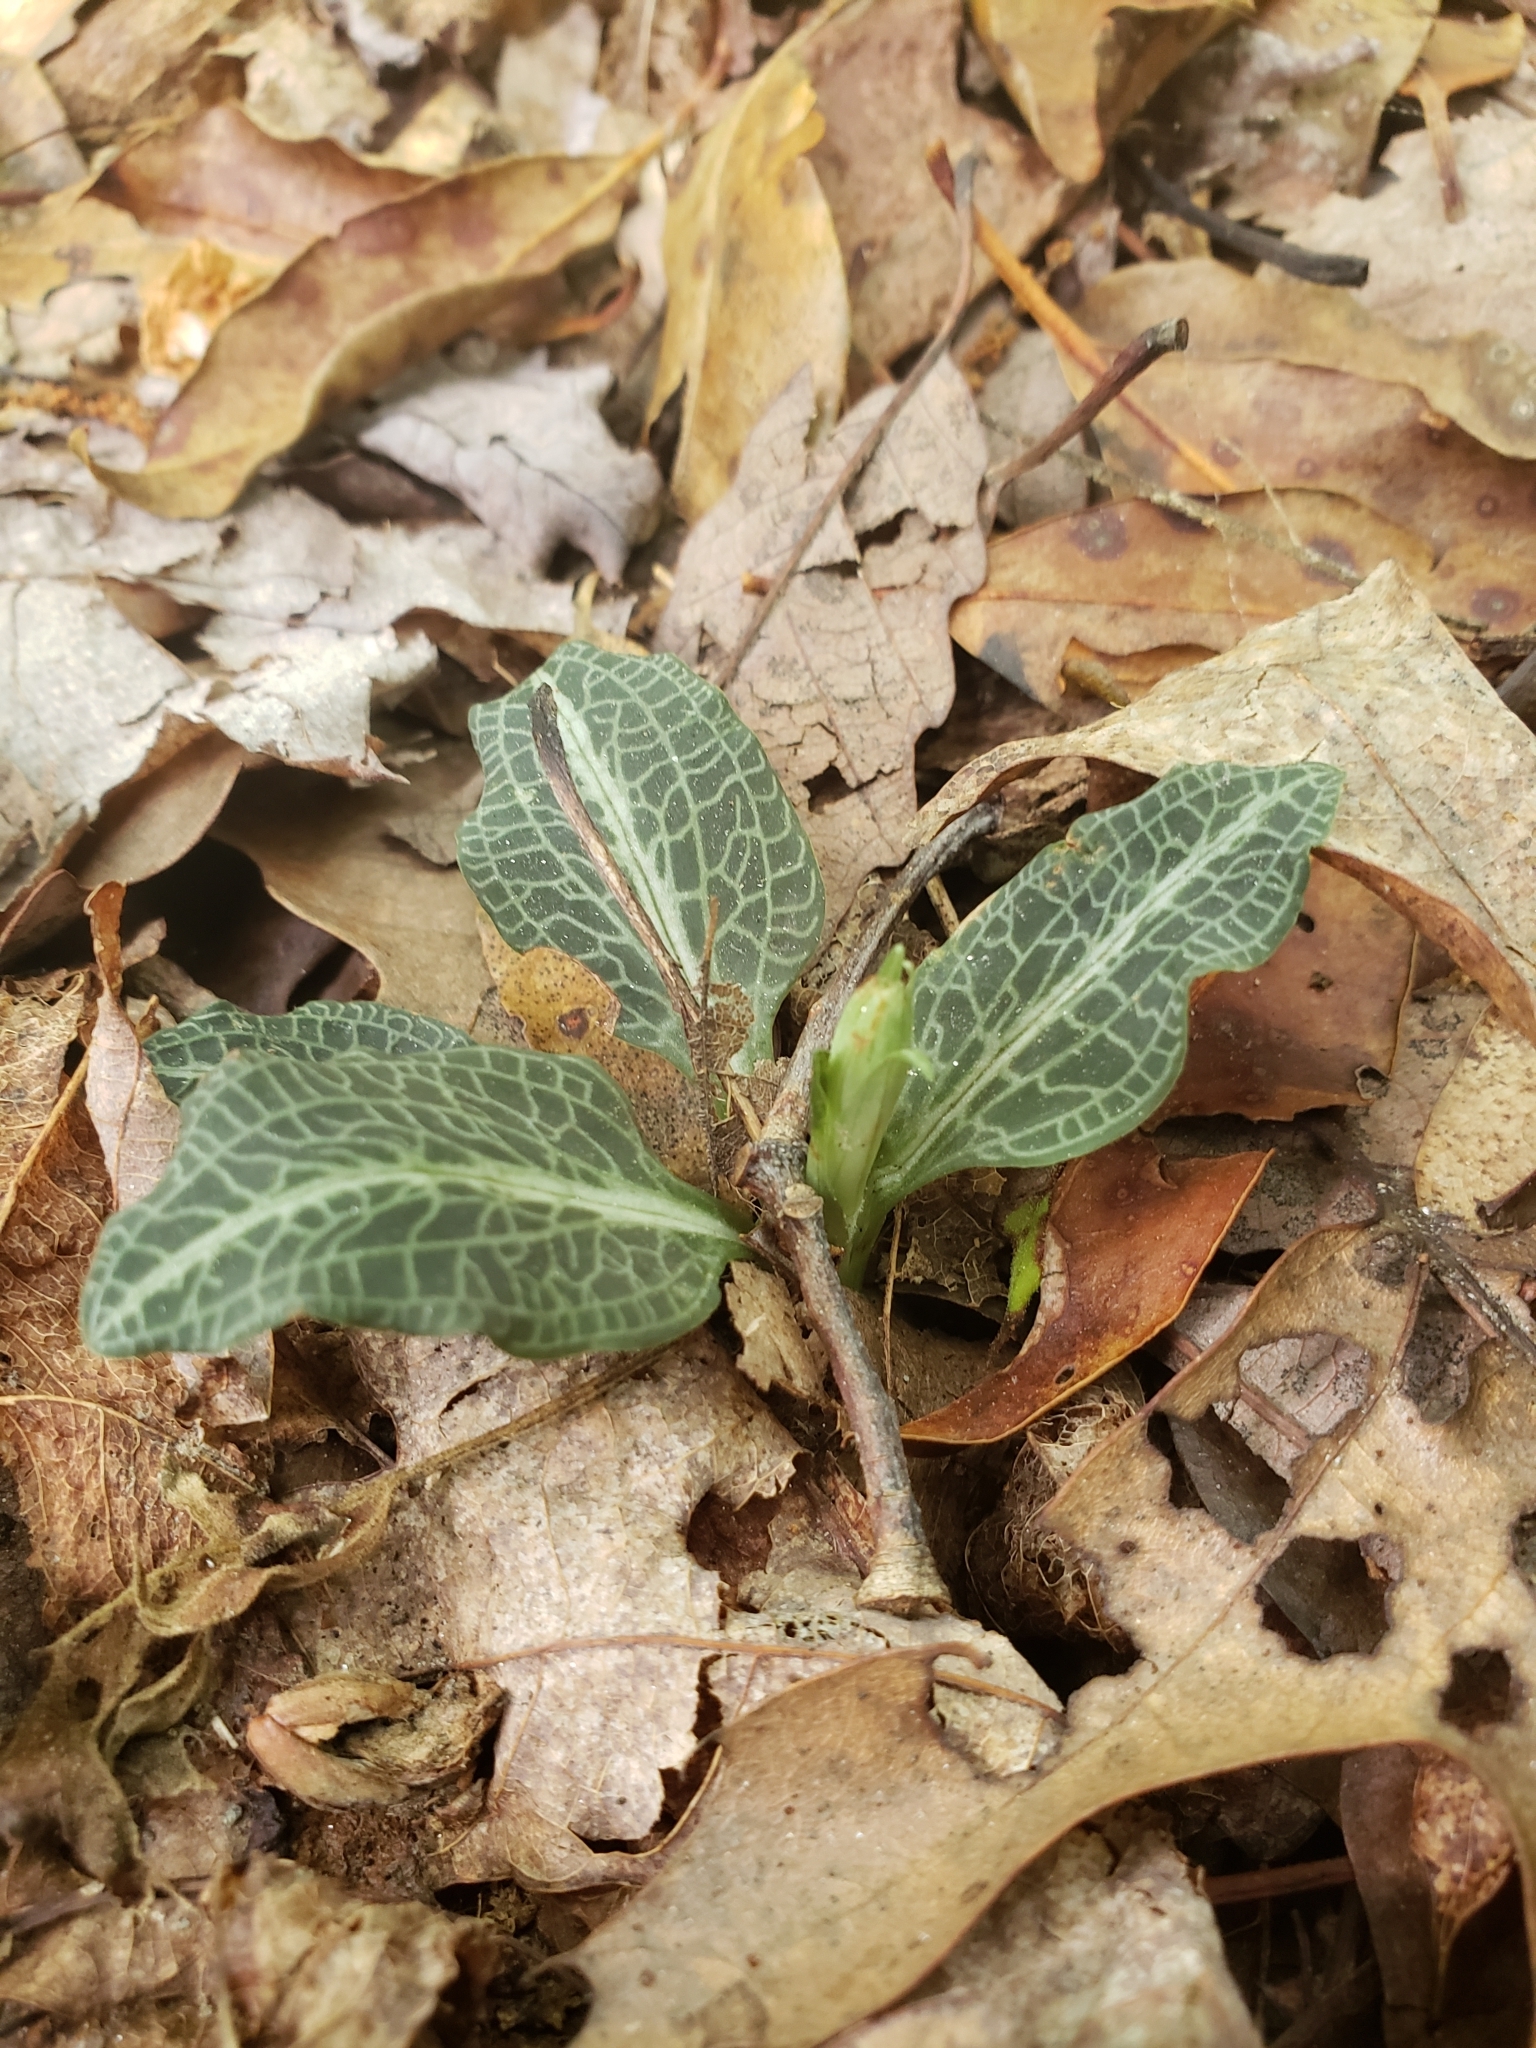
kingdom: Plantae
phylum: Tracheophyta
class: Liliopsida
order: Asparagales
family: Orchidaceae
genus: Goodyera
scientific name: Goodyera pubescens
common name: Downy rattlesnake-plantain
